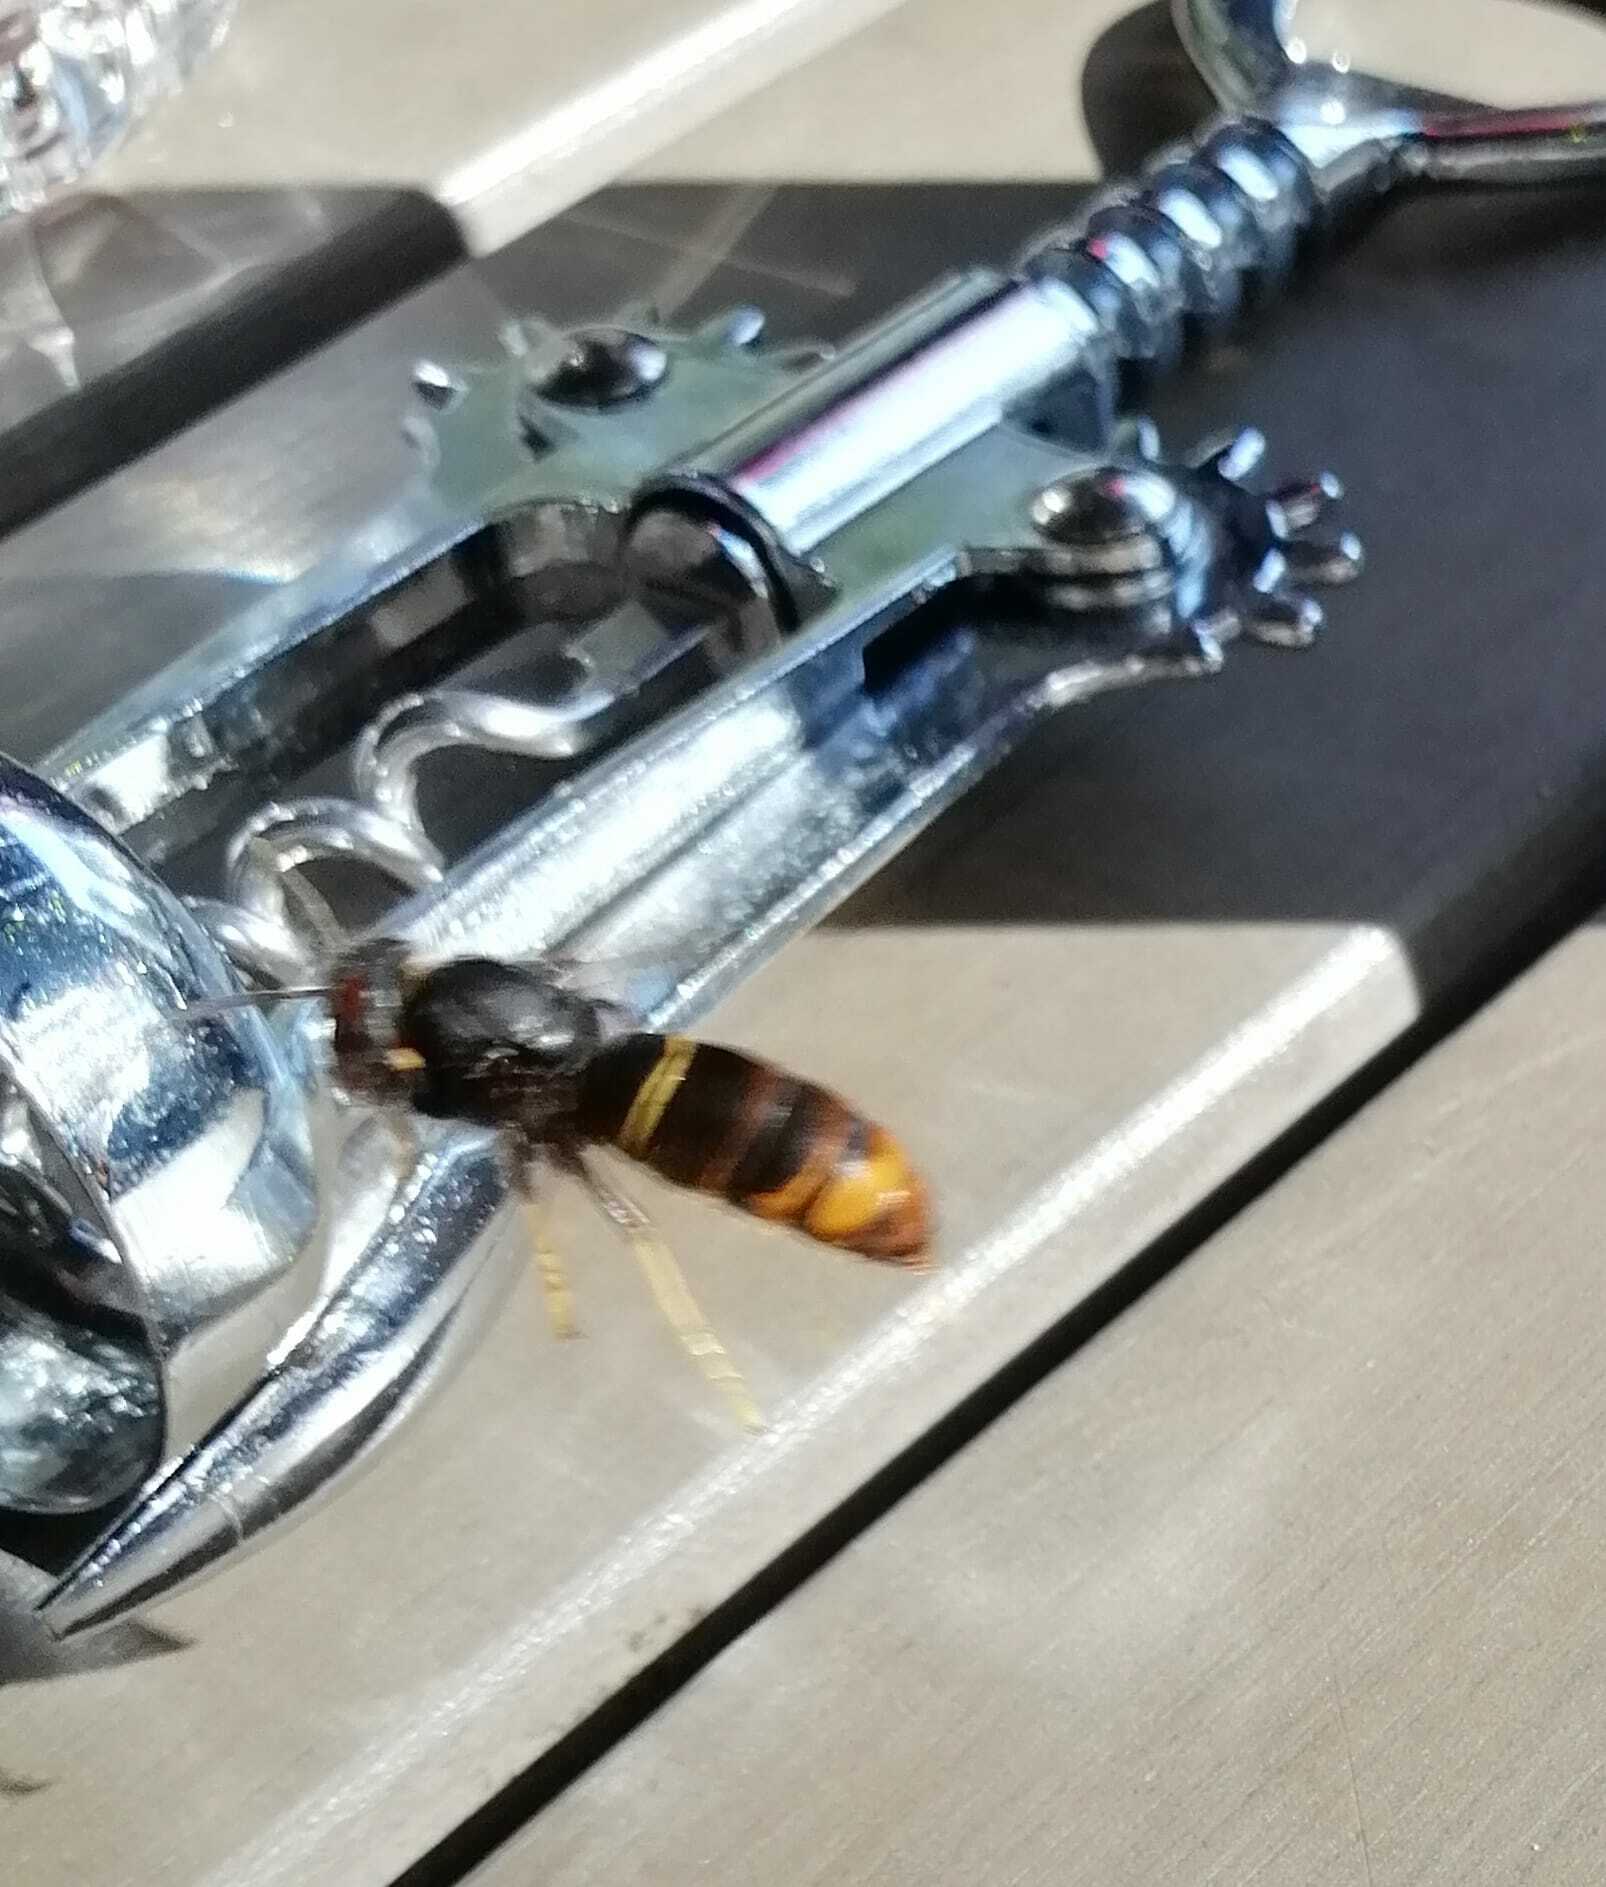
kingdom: Animalia
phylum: Arthropoda
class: Insecta
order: Hymenoptera
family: Vespidae
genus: Vespa
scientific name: Vespa velutina
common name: Asian hornet
